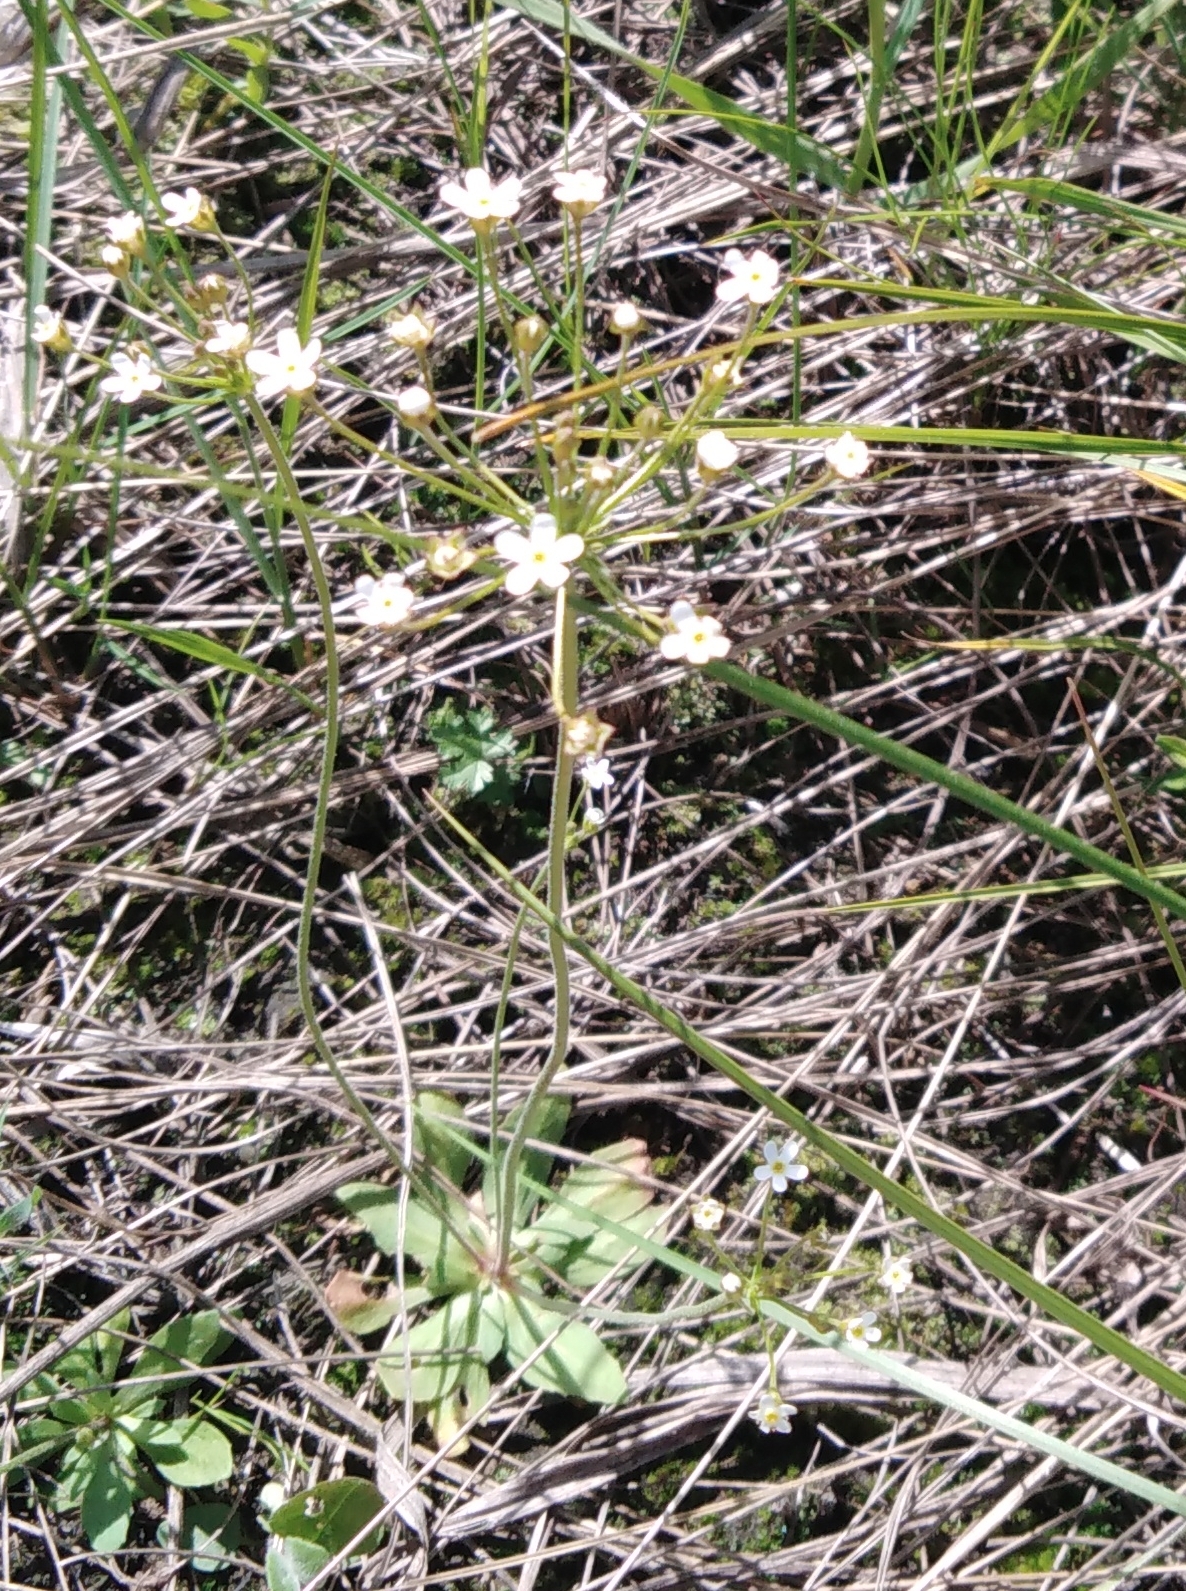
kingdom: Plantae
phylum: Tracheophyta
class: Magnoliopsida
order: Ericales
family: Primulaceae
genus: Androsace
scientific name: Androsace septentrionalis
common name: Hairy northern fairy-candelabra
